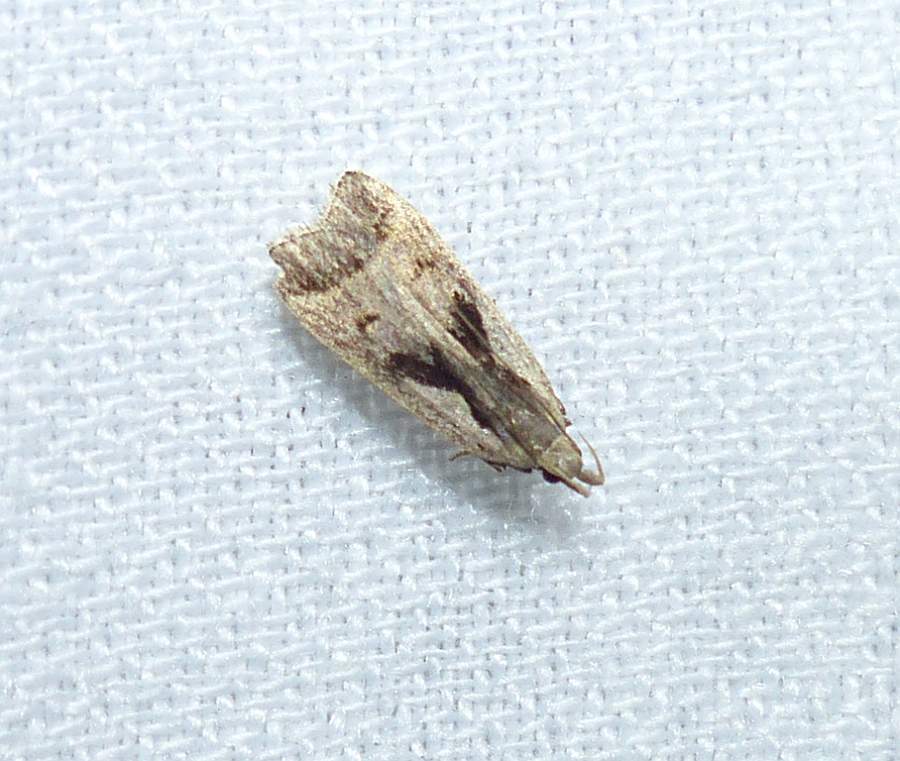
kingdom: Animalia
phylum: Arthropoda
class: Insecta
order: Lepidoptera
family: Gelechiidae
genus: Dichomeris
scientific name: Dichomeris bilobella
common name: Bilobed dichomeris moth
